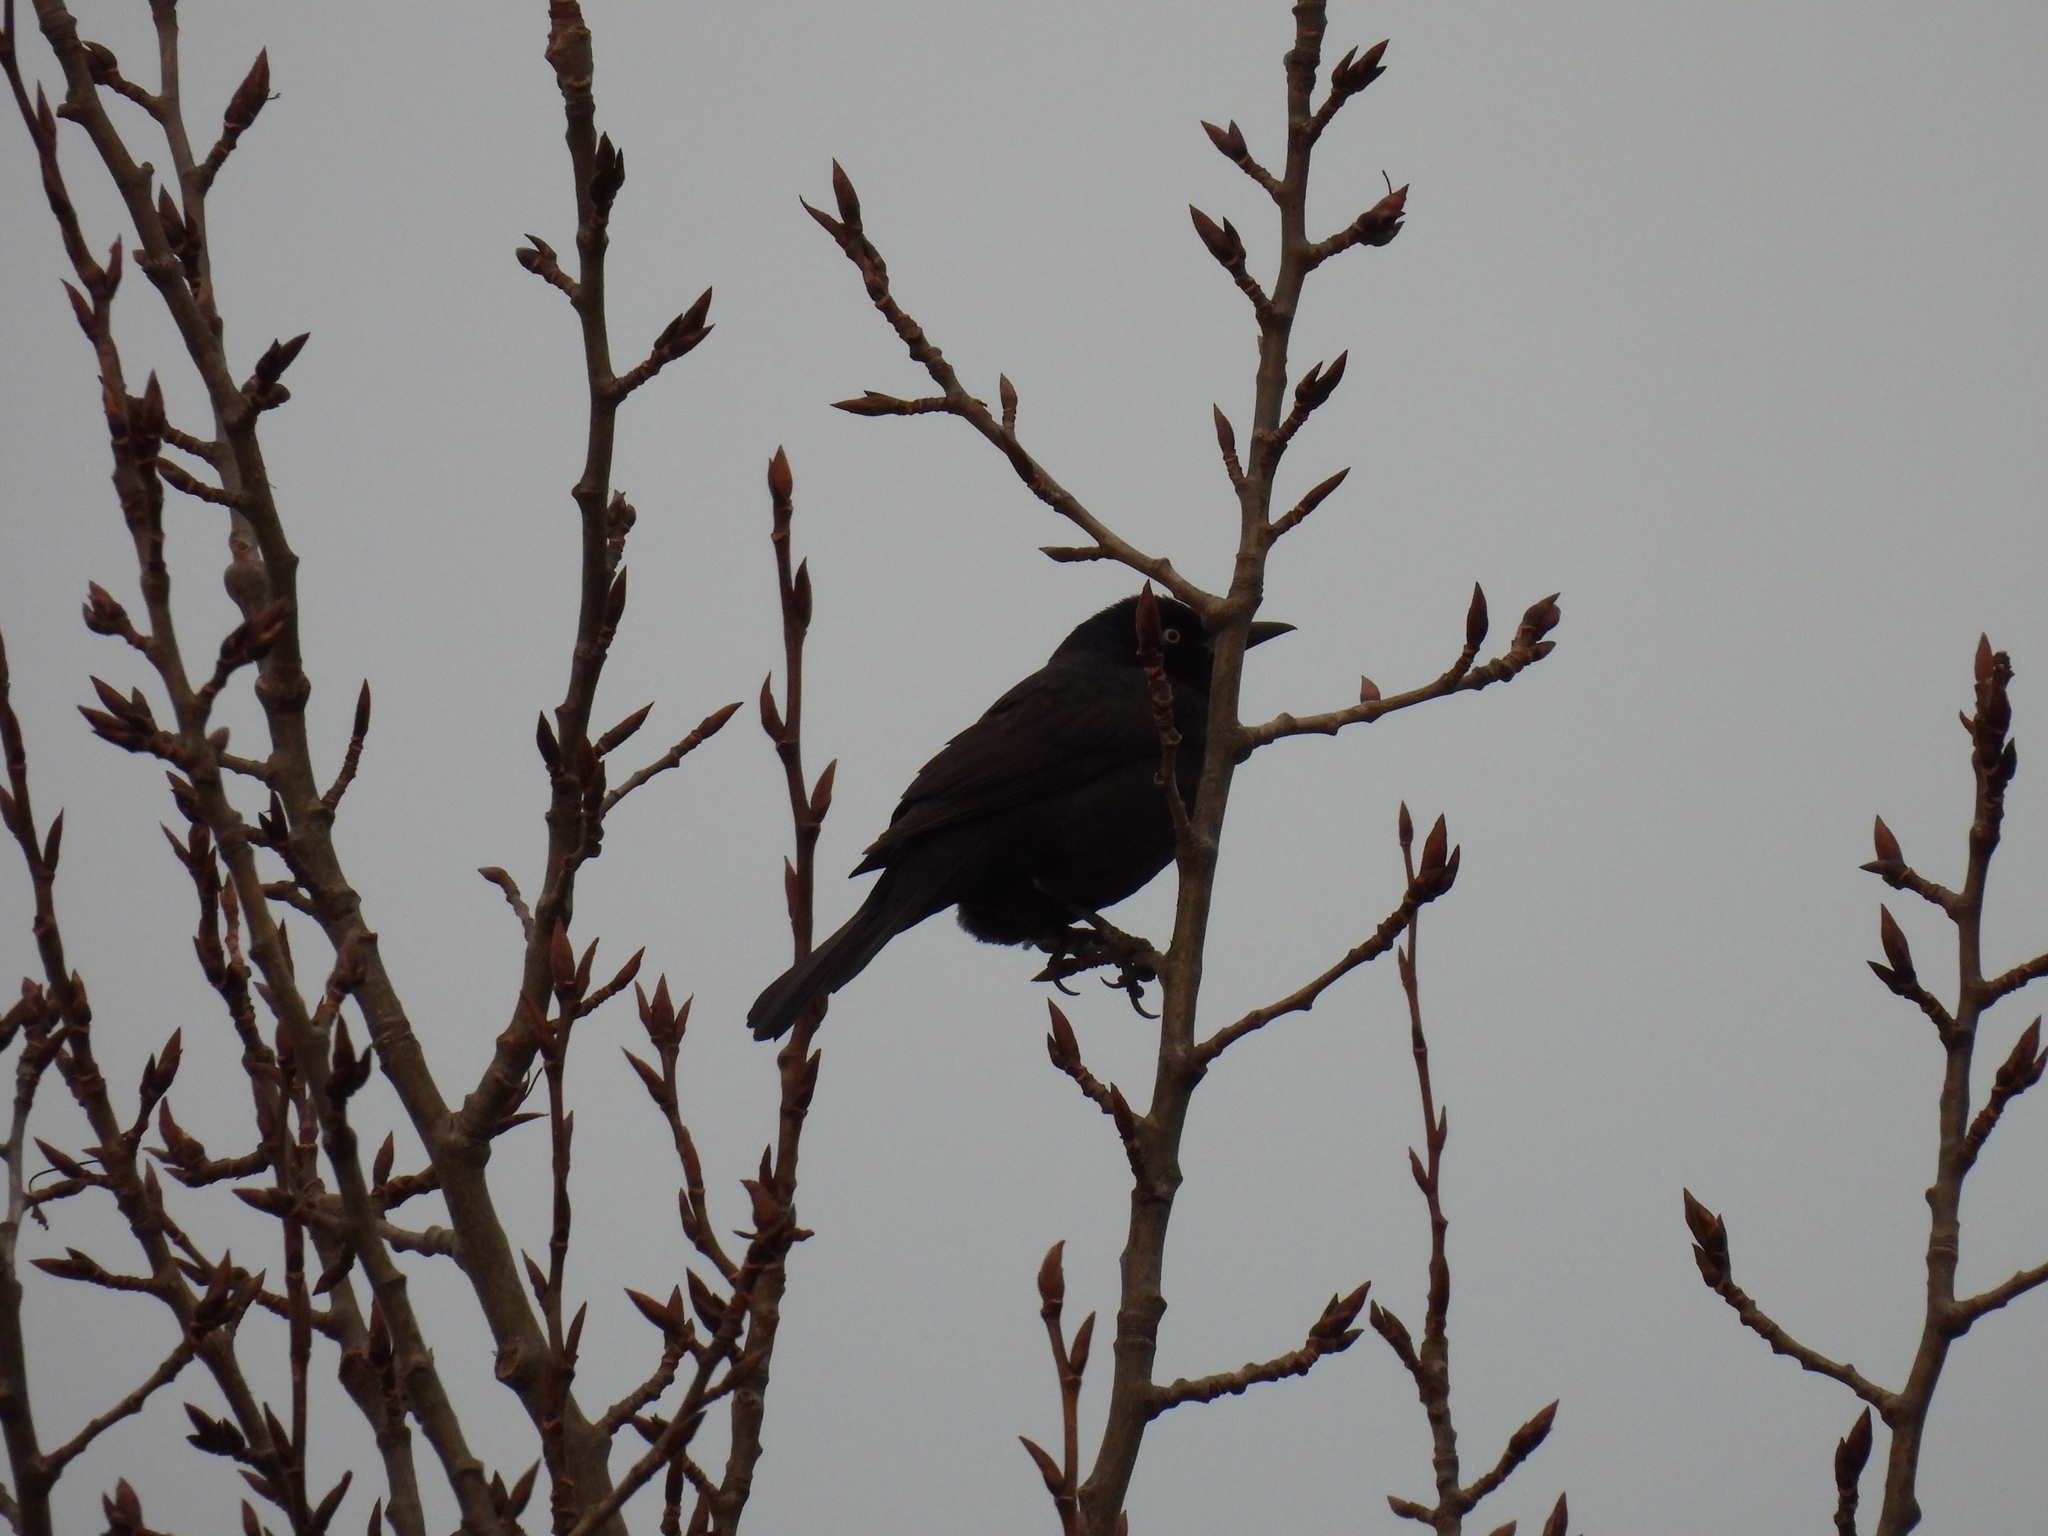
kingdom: Animalia
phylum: Chordata
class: Aves
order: Passeriformes
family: Icteridae
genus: Quiscalus
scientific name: Quiscalus quiscula
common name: Common grackle
